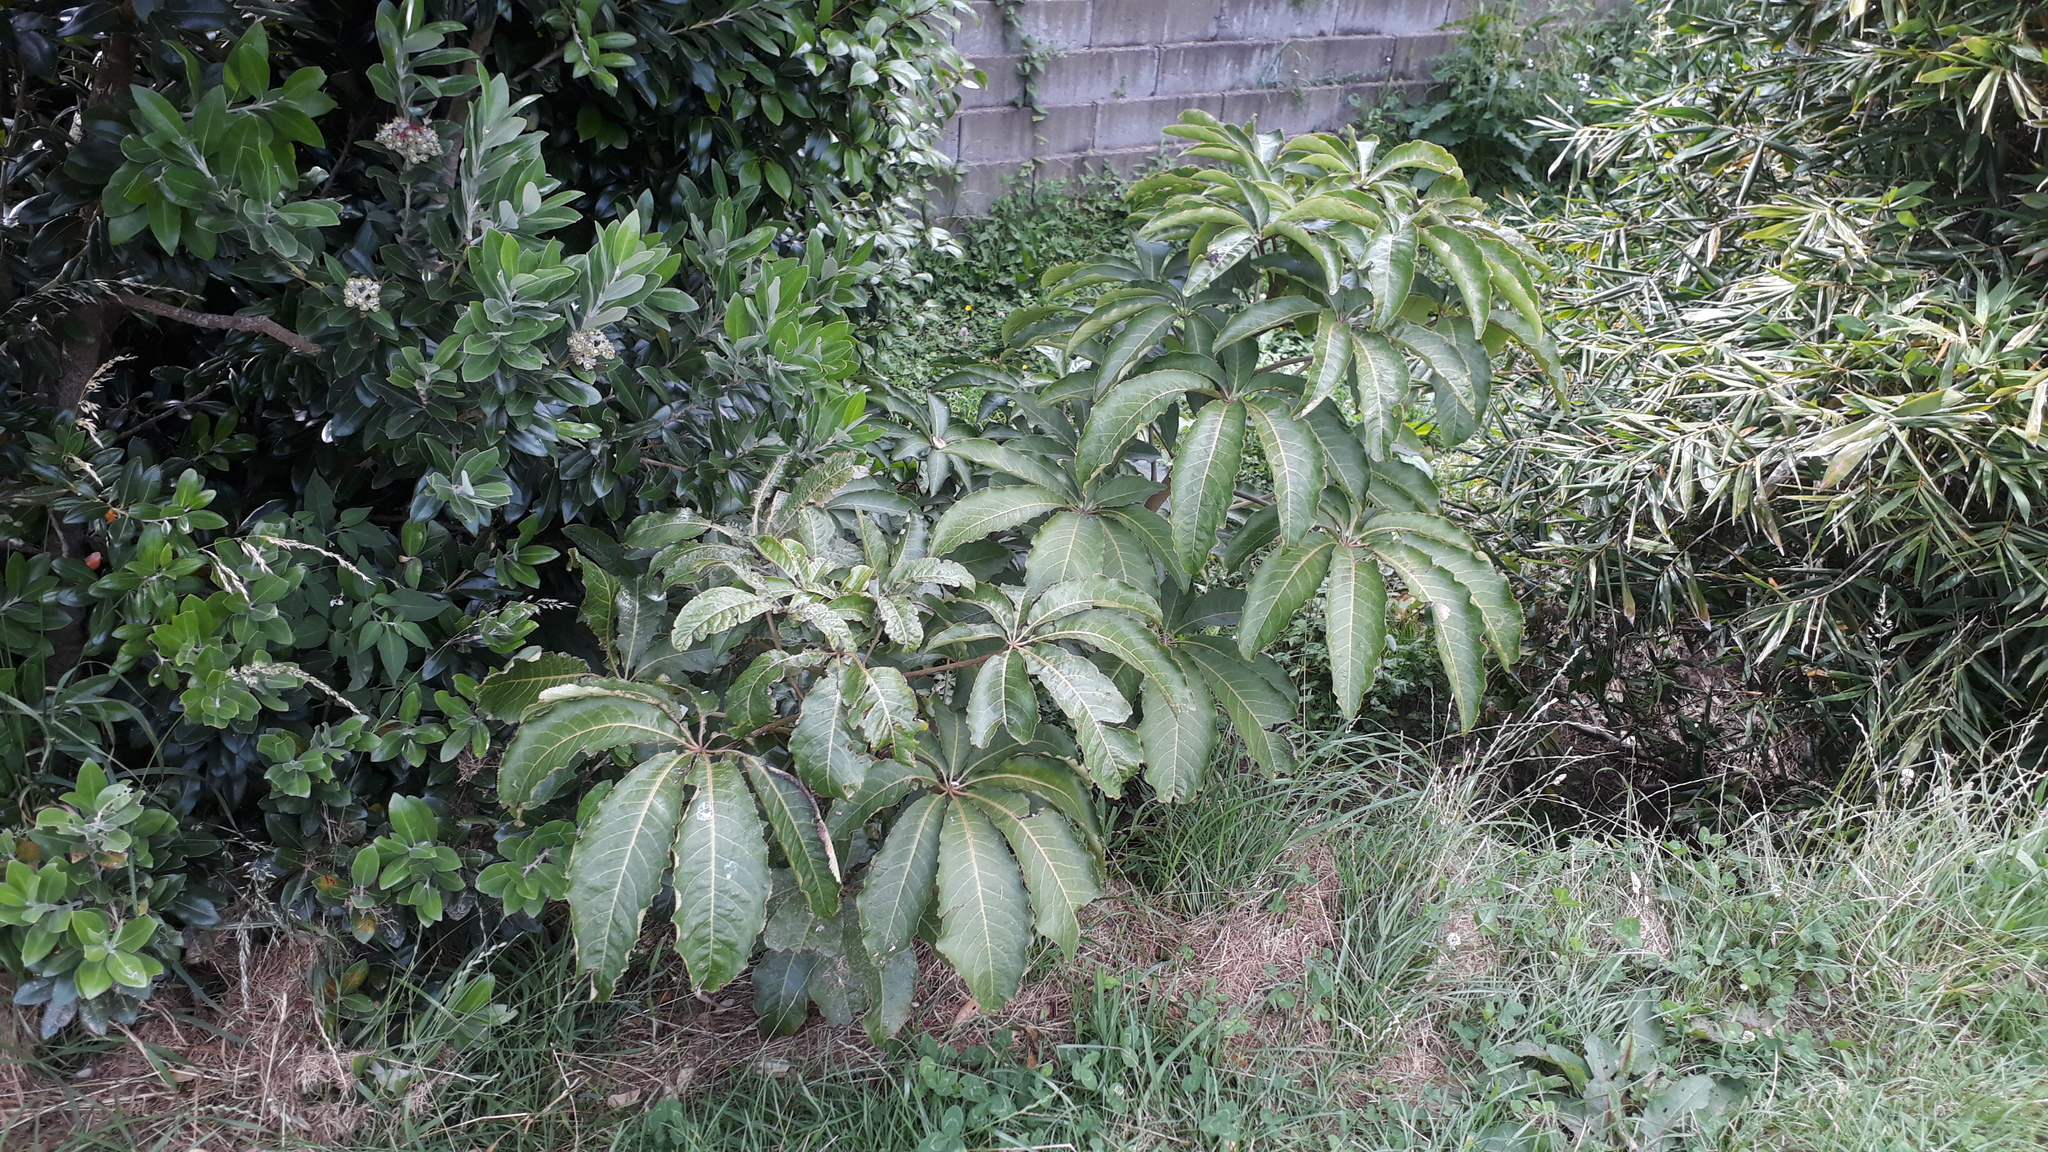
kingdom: Plantae
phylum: Tracheophyta
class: Magnoliopsida
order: Apiales
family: Araliaceae
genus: Schefflera
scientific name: Schefflera digitata
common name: Pate
